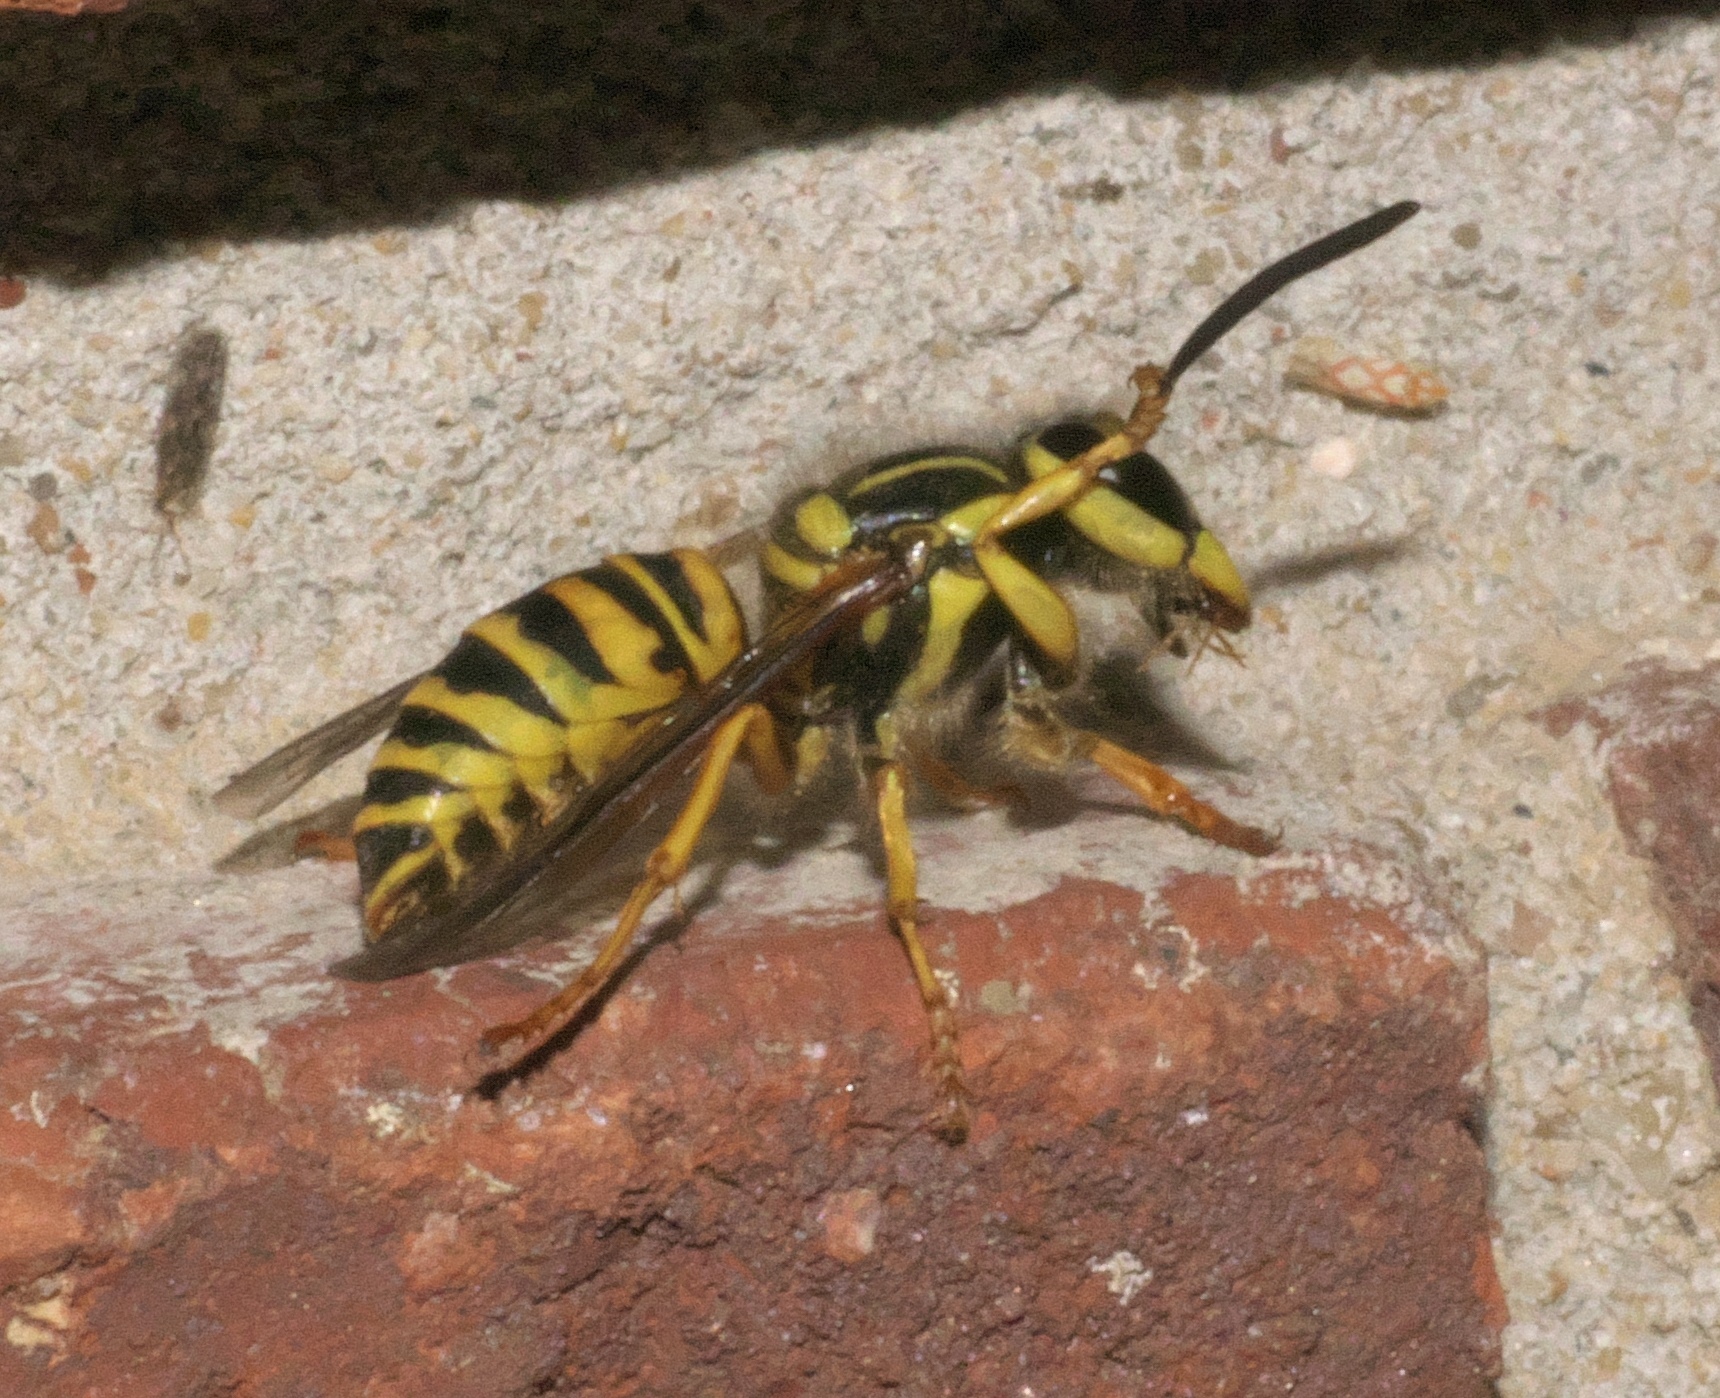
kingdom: Animalia
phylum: Arthropoda
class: Insecta
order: Hymenoptera
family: Vespidae
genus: Vespula
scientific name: Vespula squamosa
